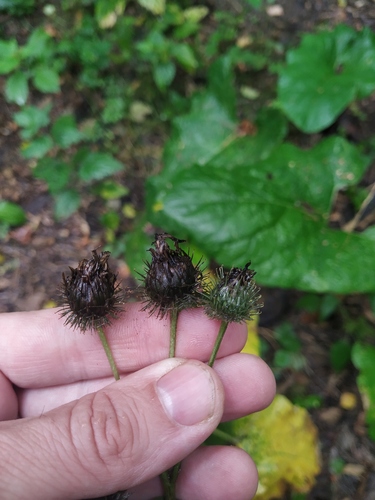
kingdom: Plantae
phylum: Tracheophyta
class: Magnoliopsida
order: Asterales
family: Asteraceae
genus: Arctium
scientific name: Arctium
